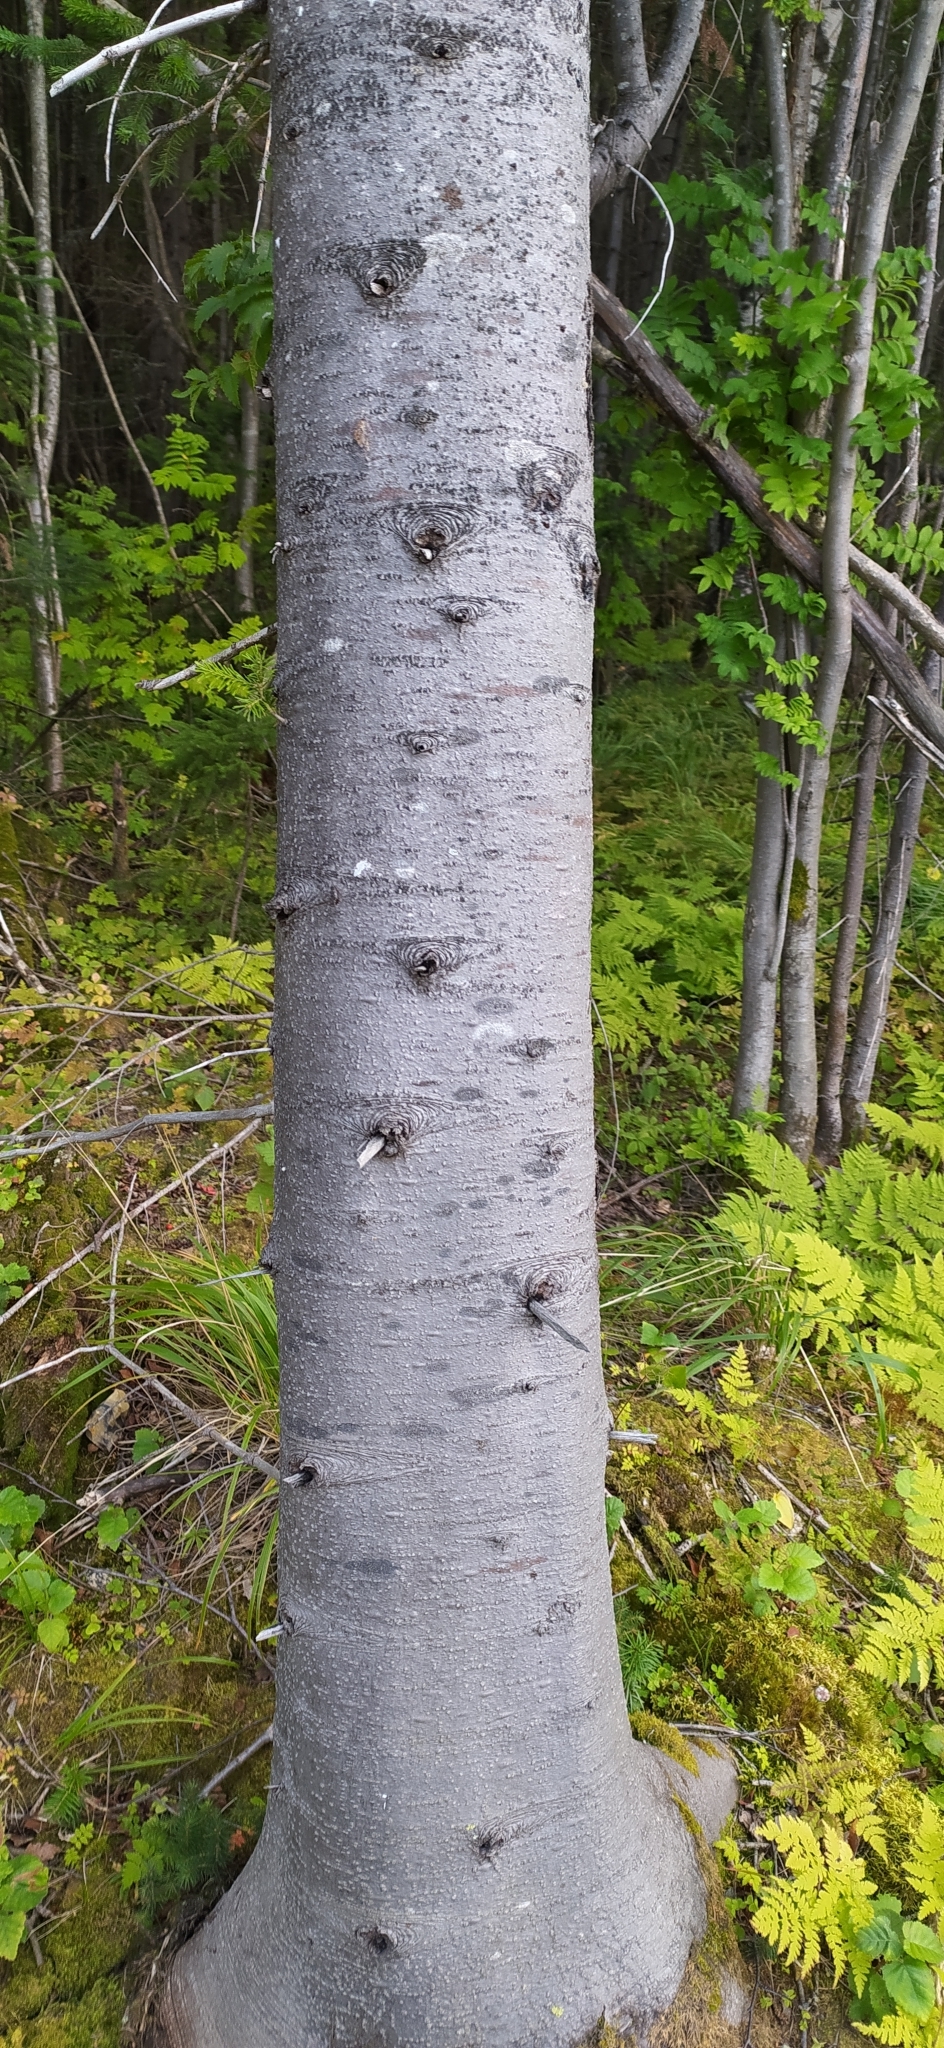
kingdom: Plantae
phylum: Tracheophyta
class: Pinopsida
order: Pinales
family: Pinaceae
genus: Abies
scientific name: Abies sibirica
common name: Siberian fir
